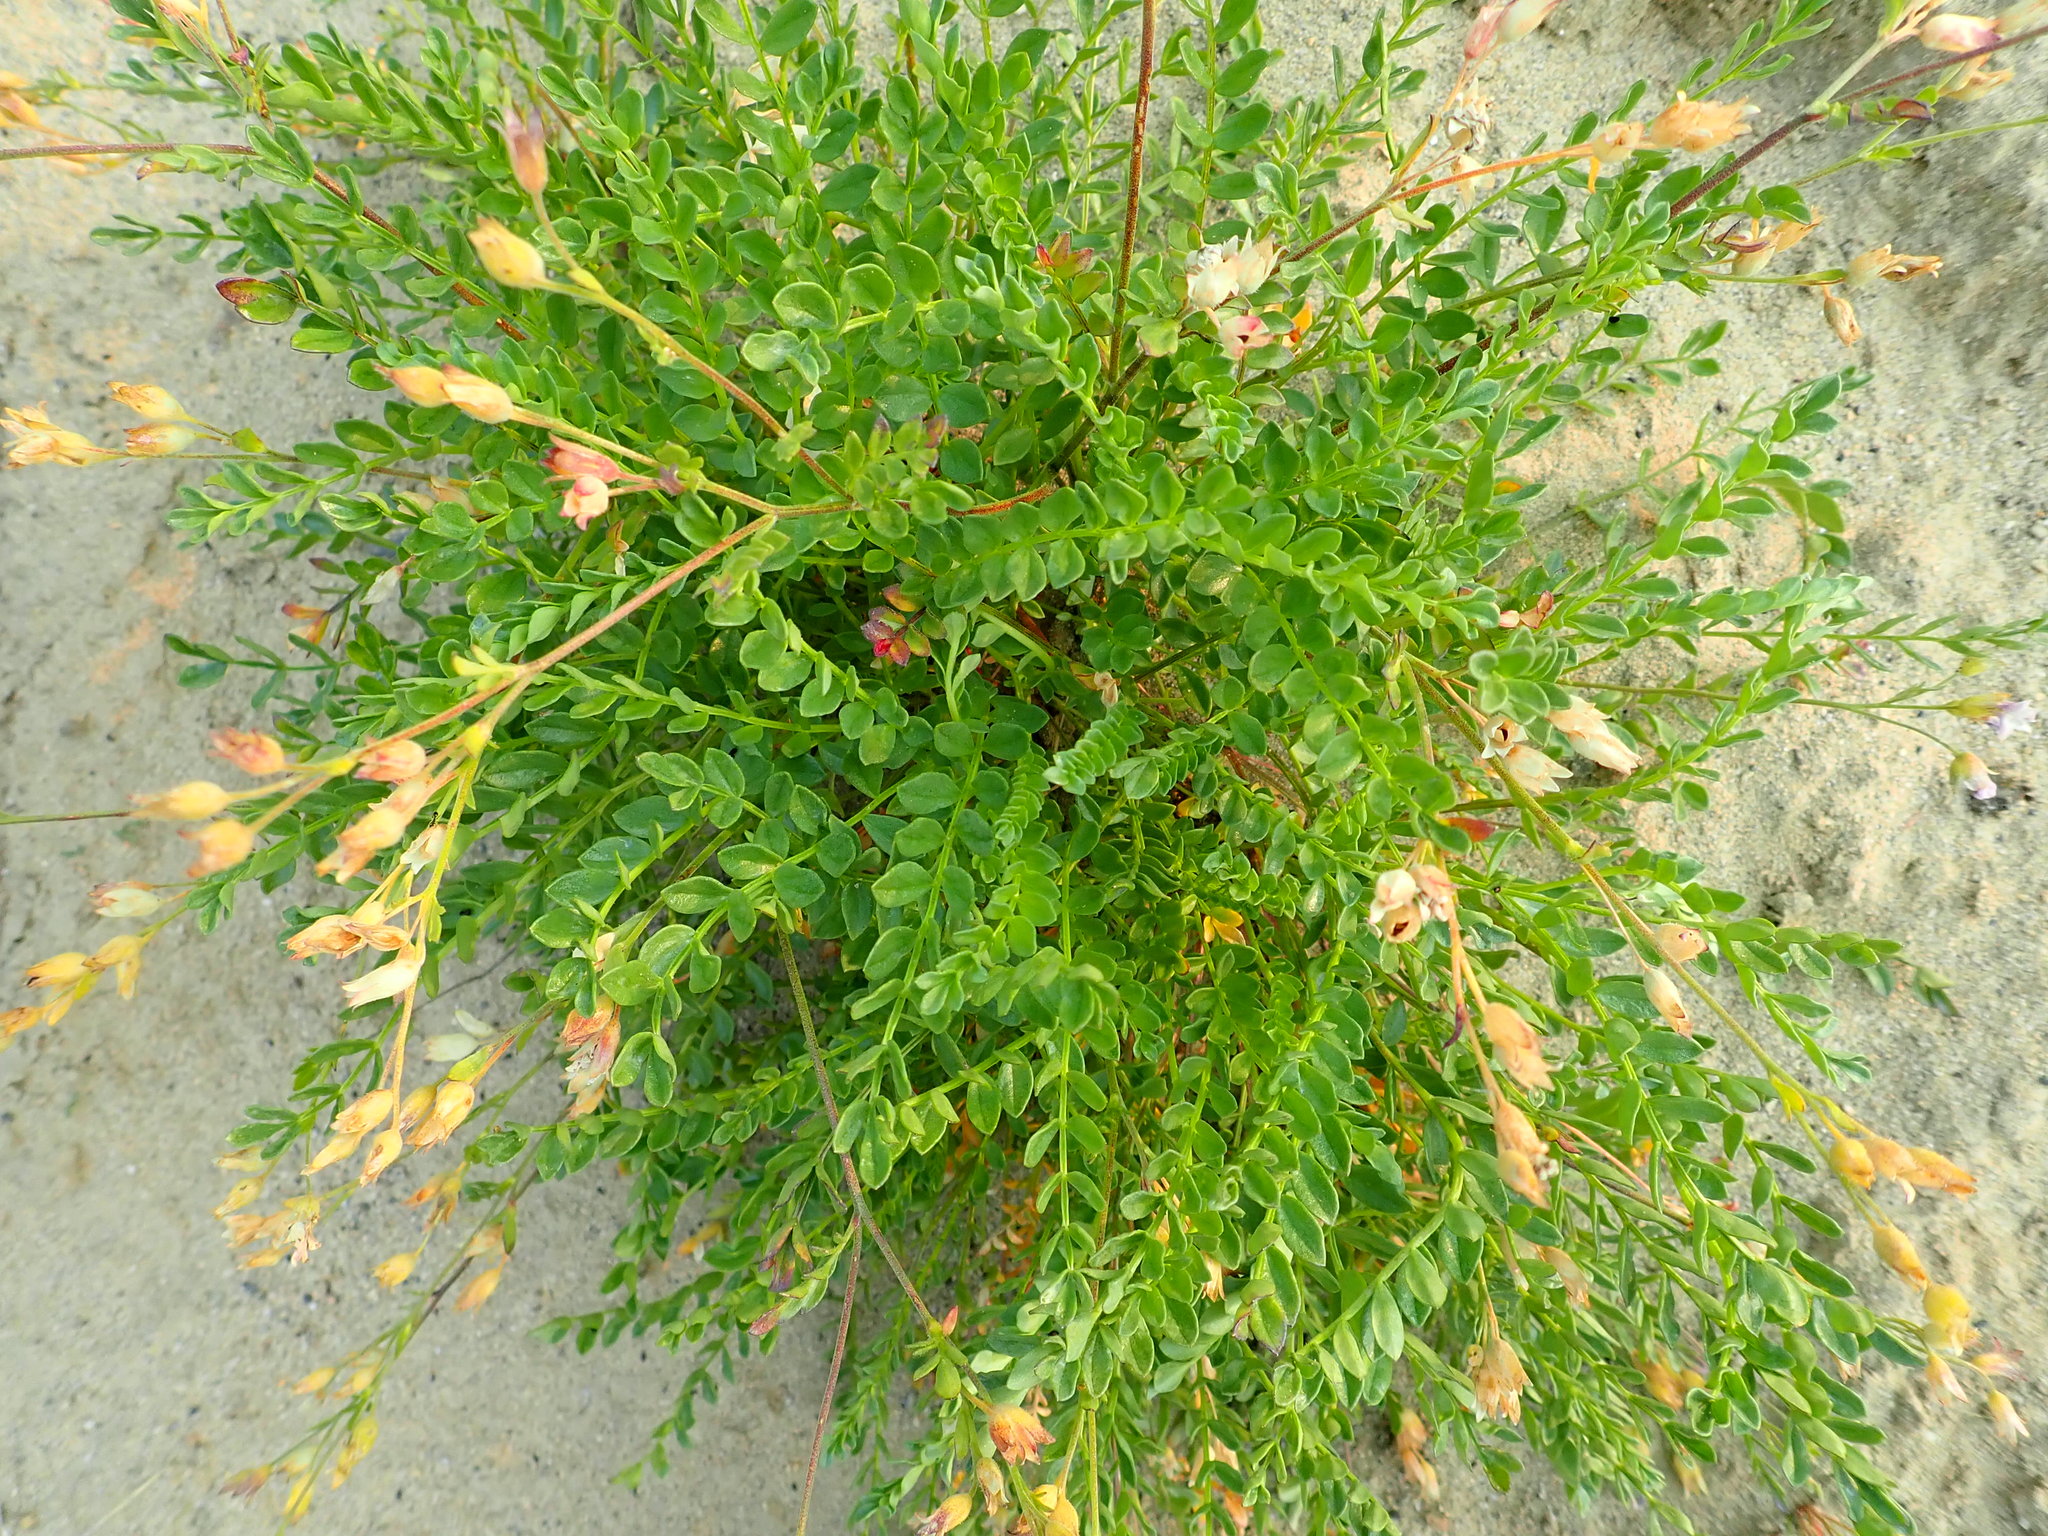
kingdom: Plantae
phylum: Tracheophyta
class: Magnoliopsida
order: Ericales
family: Polemoniaceae
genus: Polemonium
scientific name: Polemonium pulcherrimum
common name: Short jacob's-ladder
